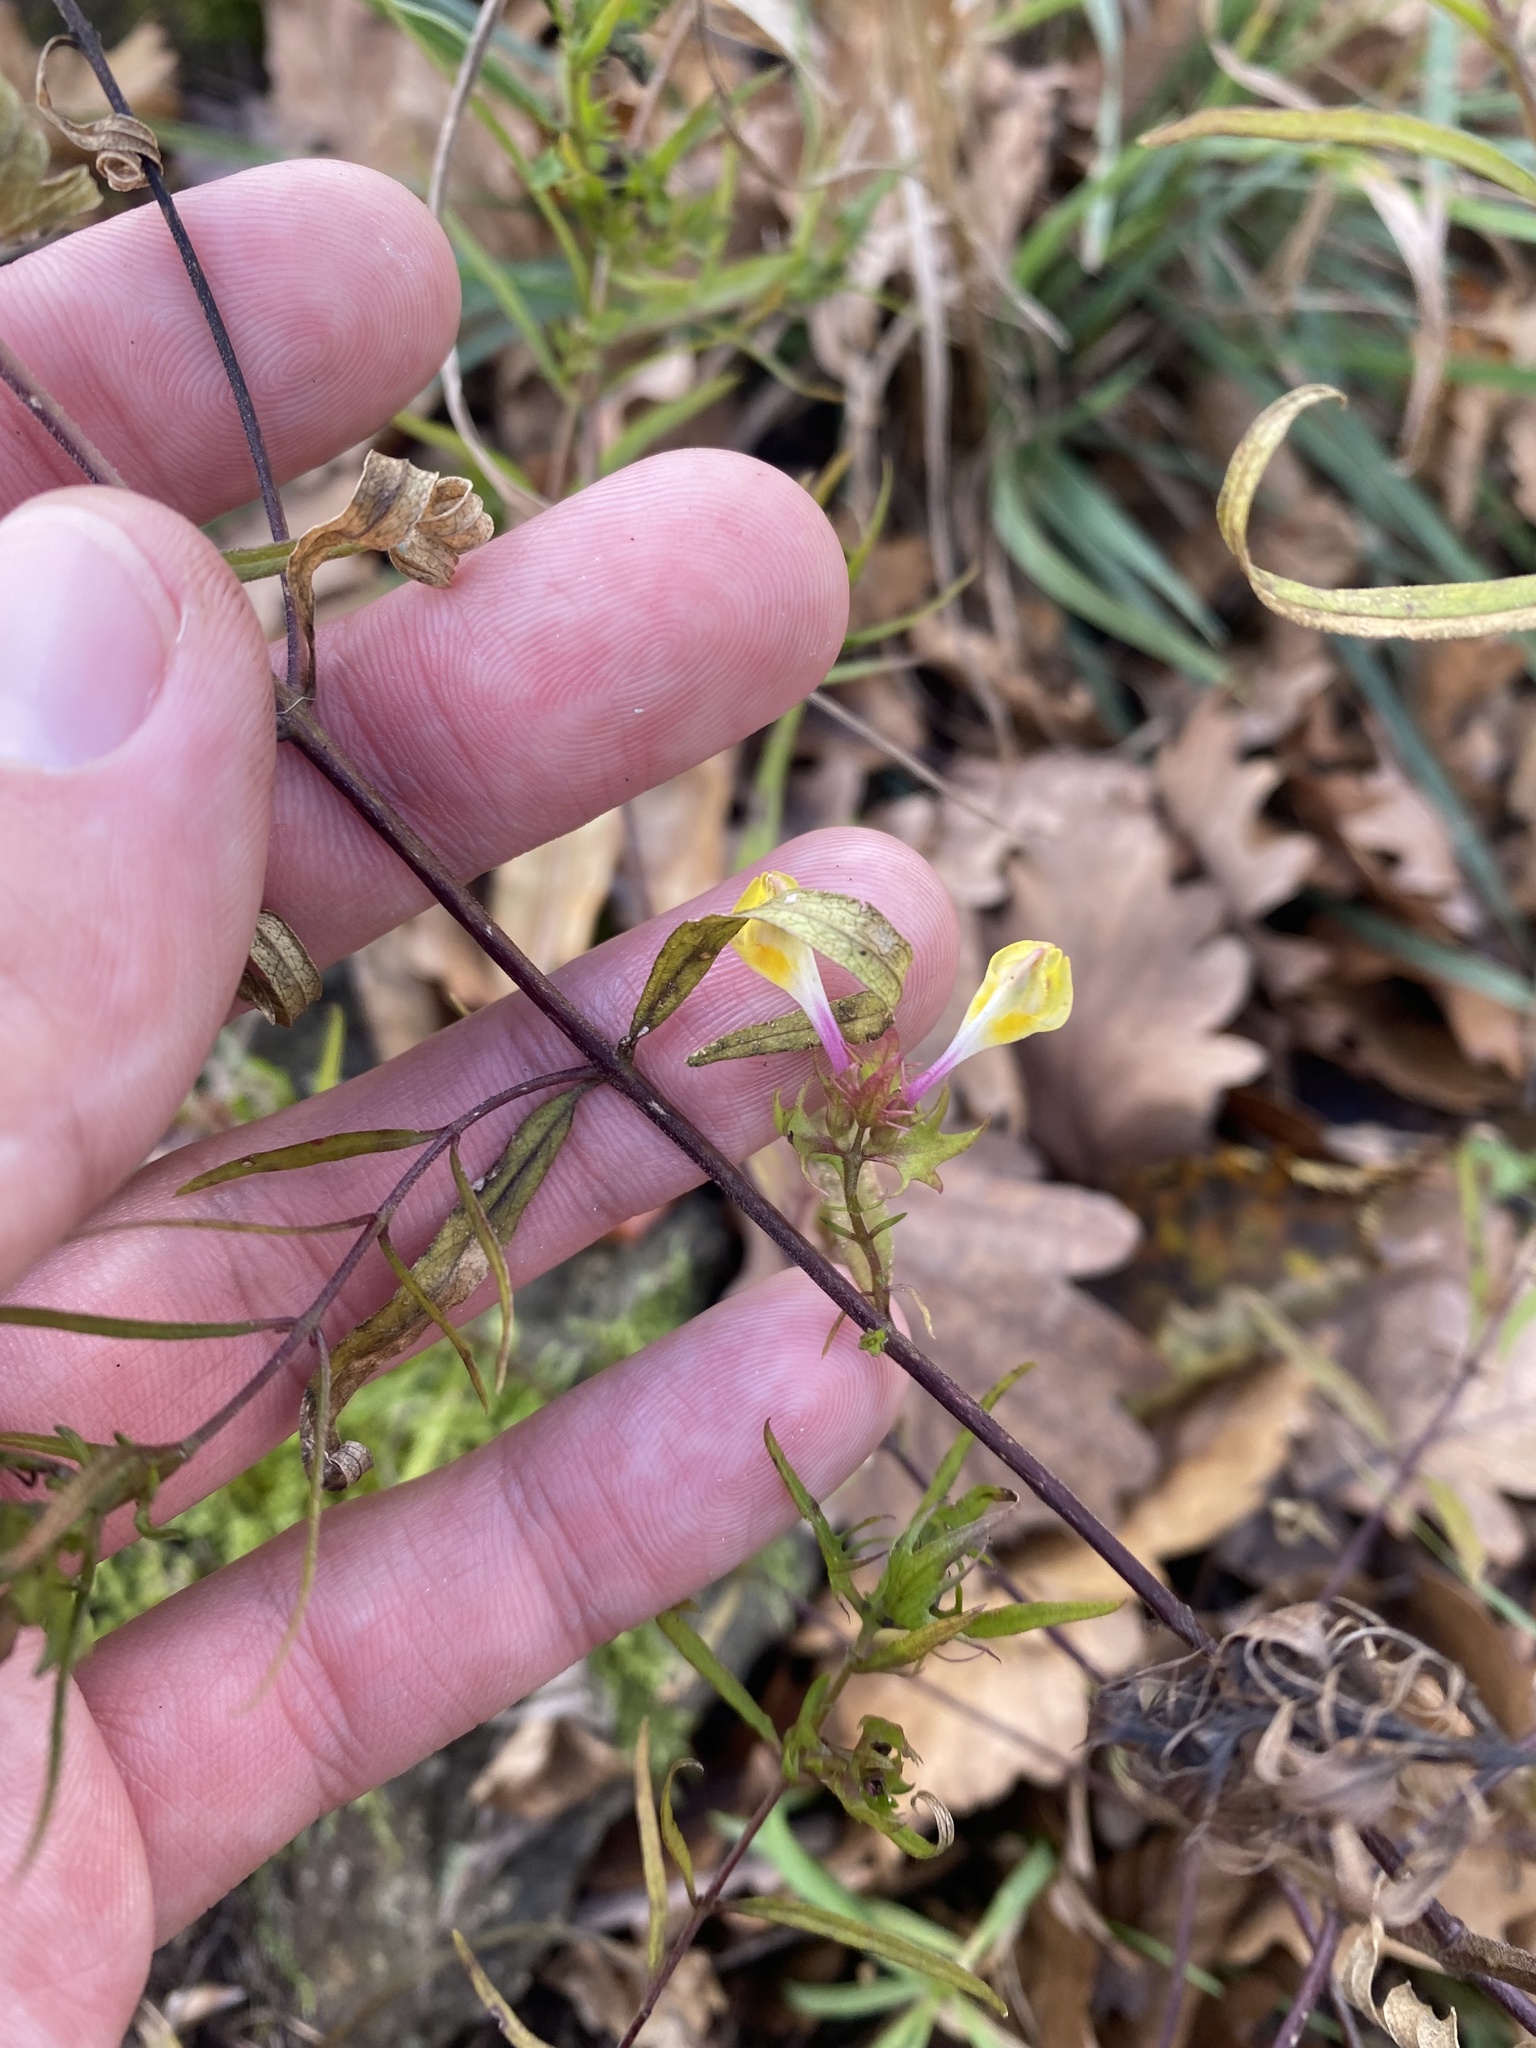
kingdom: Plantae
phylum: Tracheophyta
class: Magnoliopsida
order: Lamiales
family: Orobanchaceae
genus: Melampyrum
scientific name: Melampyrum arvense
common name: Field cow-wheat
